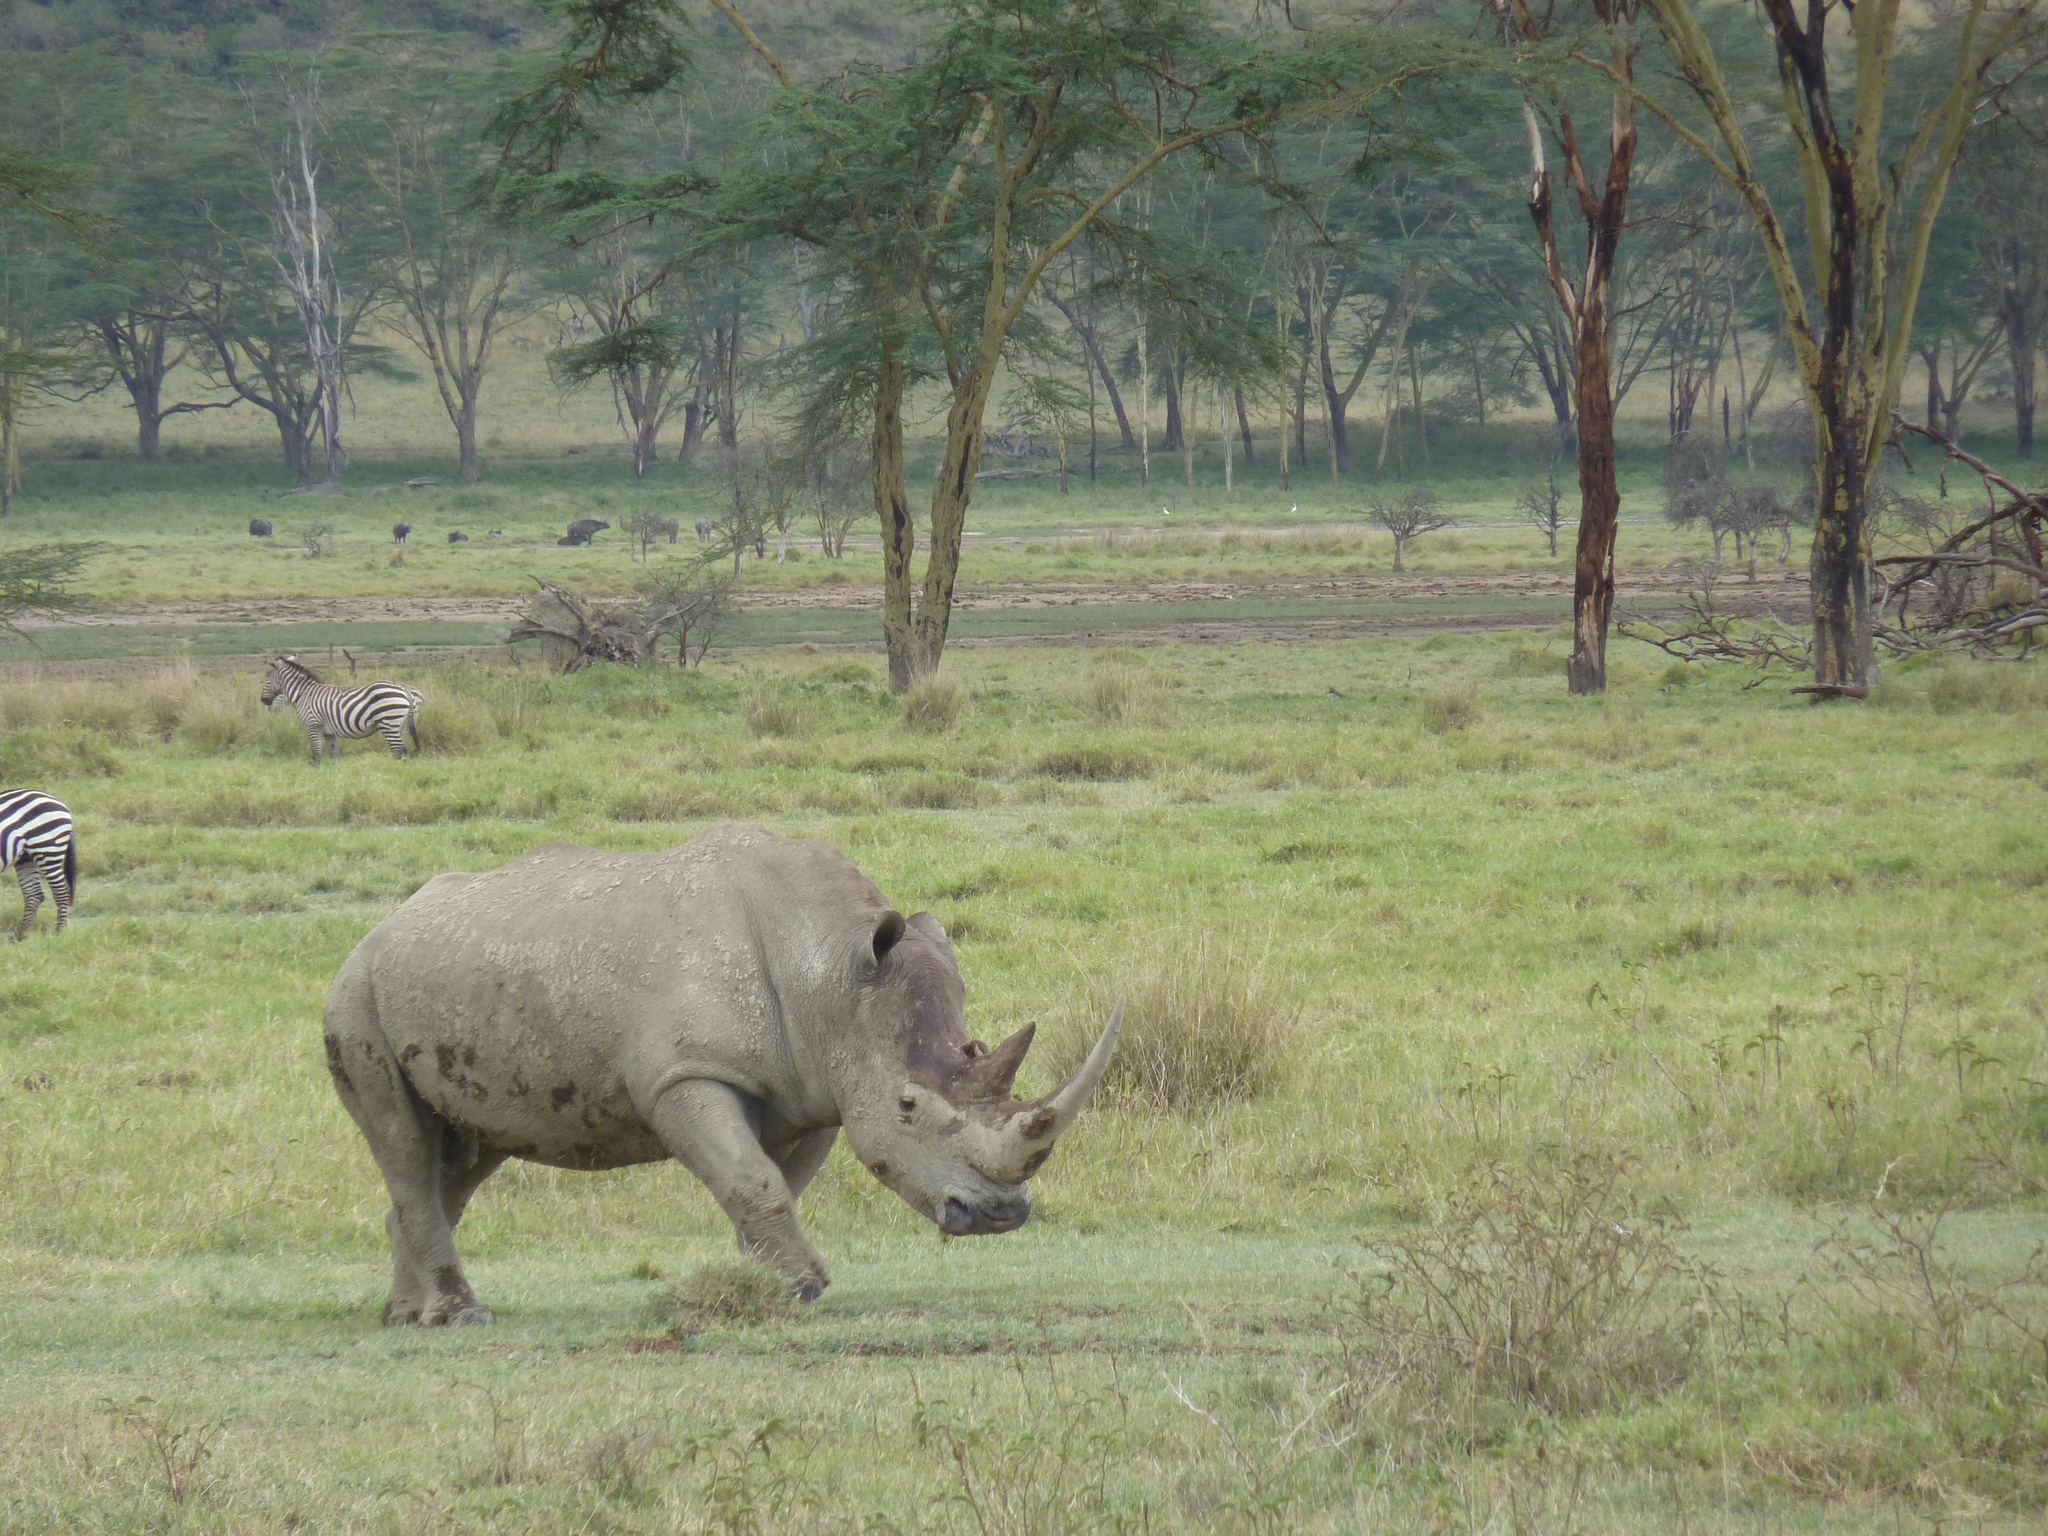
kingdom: Animalia
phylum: Chordata
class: Mammalia
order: Perissodactyla
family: Rhinocerotidae
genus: Ceratotherium
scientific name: Ceratotherium simum
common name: White rhinoceros
